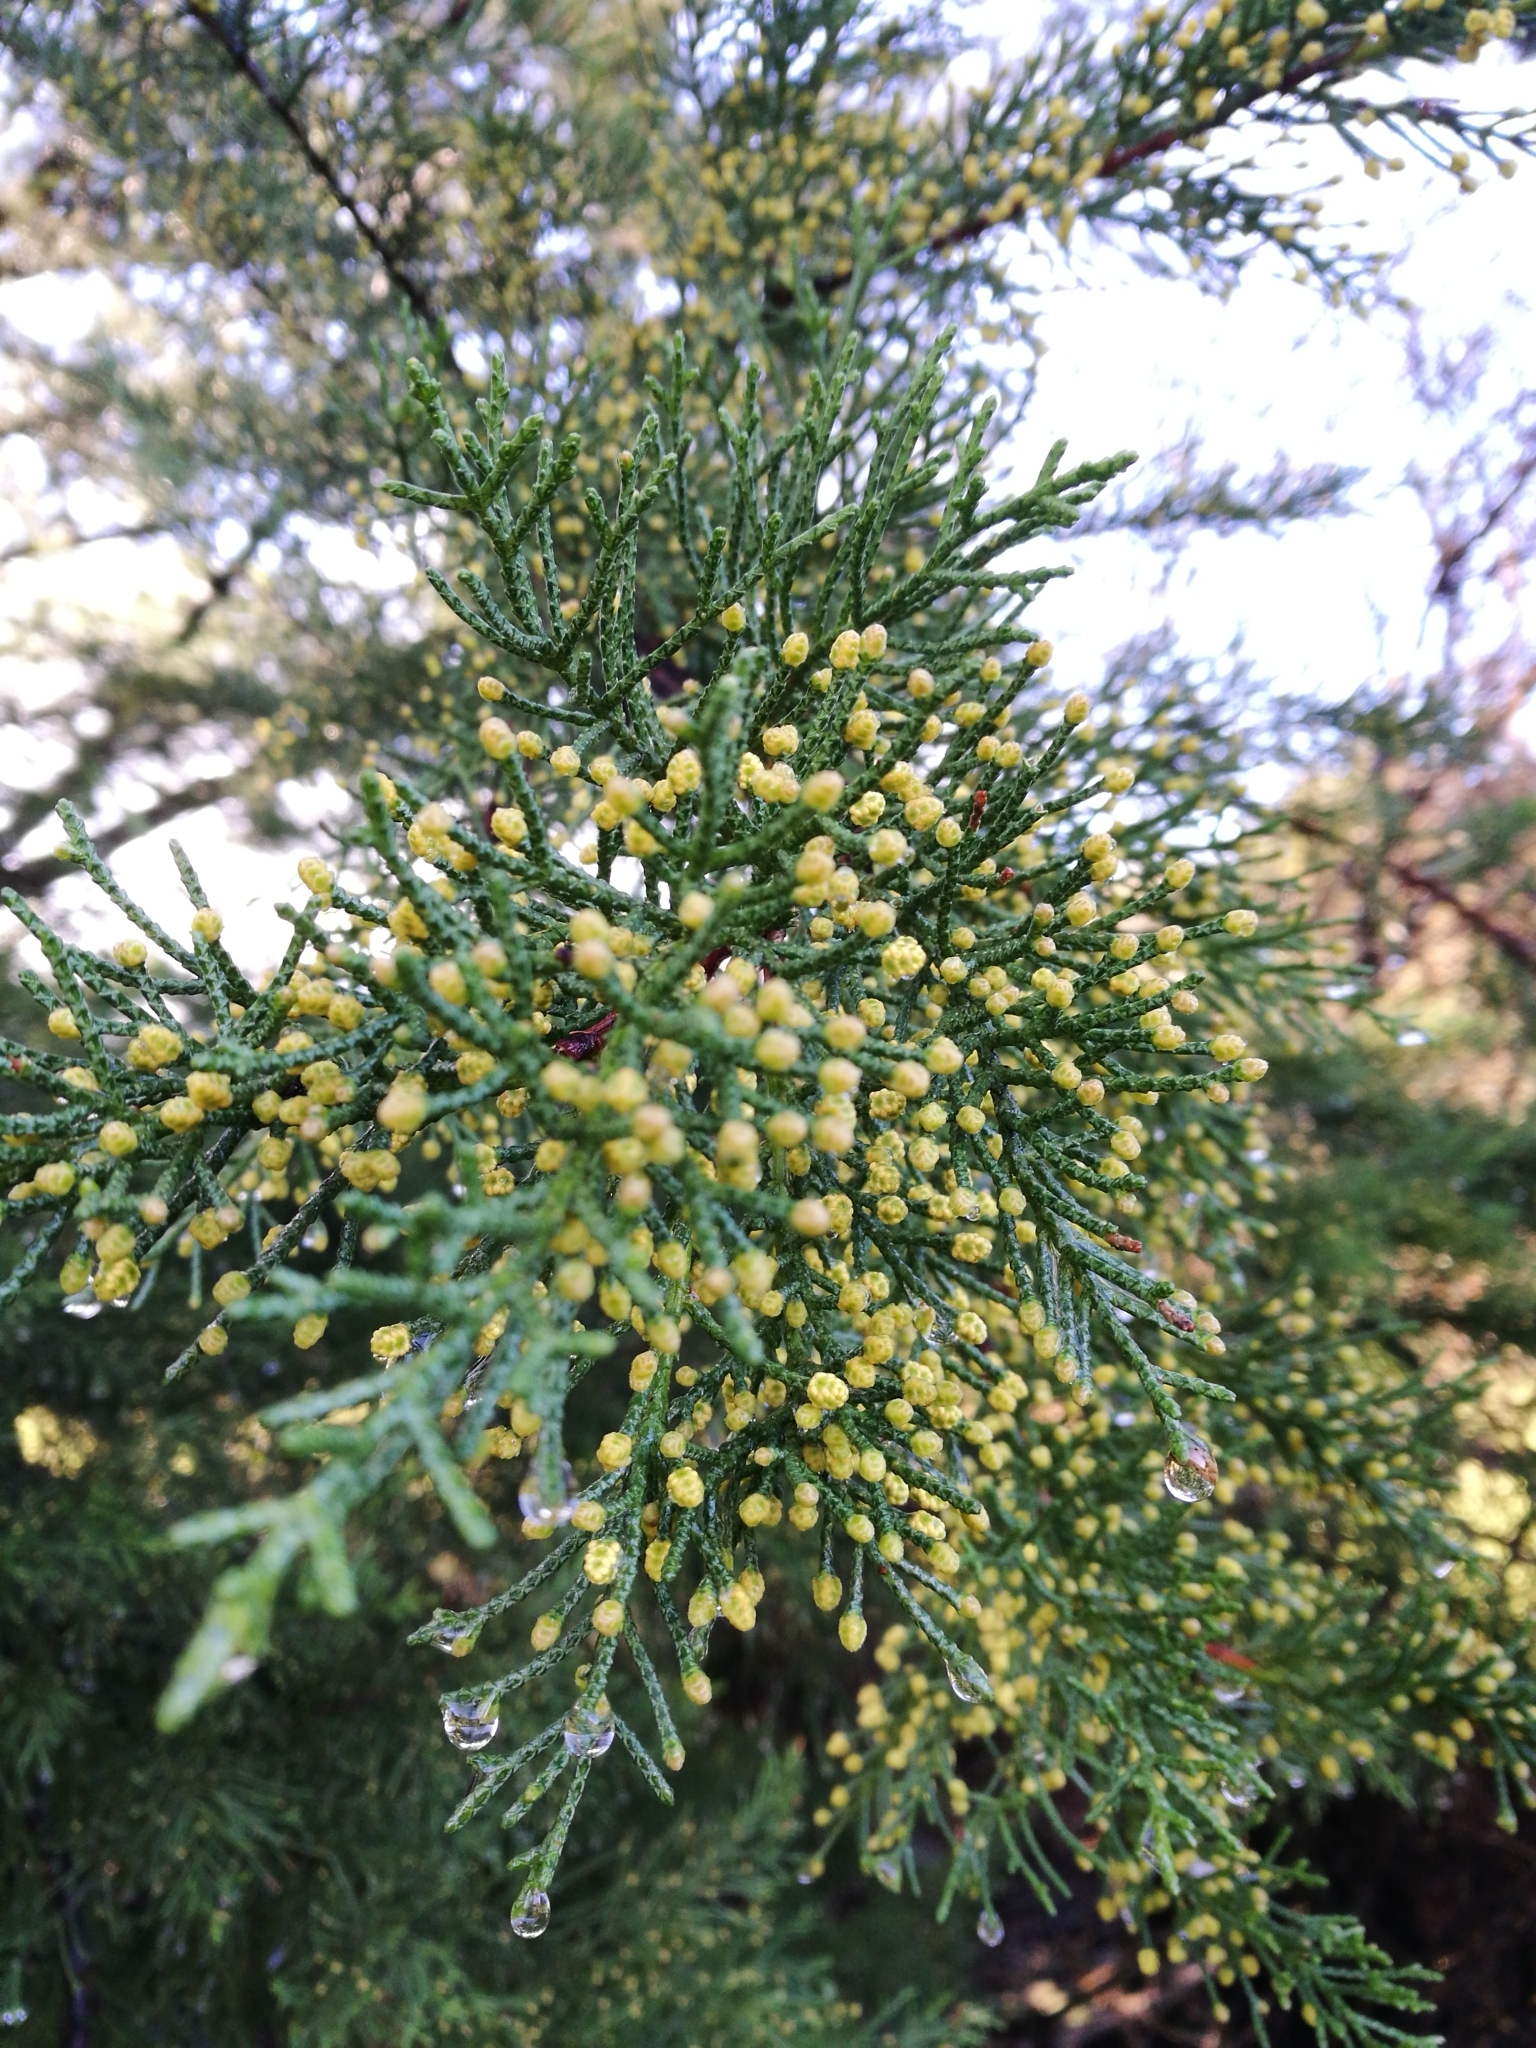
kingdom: Plantae
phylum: Tracheophyta
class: Pinopsida
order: Pinales
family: Cupressaceae
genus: Cupressus
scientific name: Cupressus macrocarpa
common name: Monterey cypress
